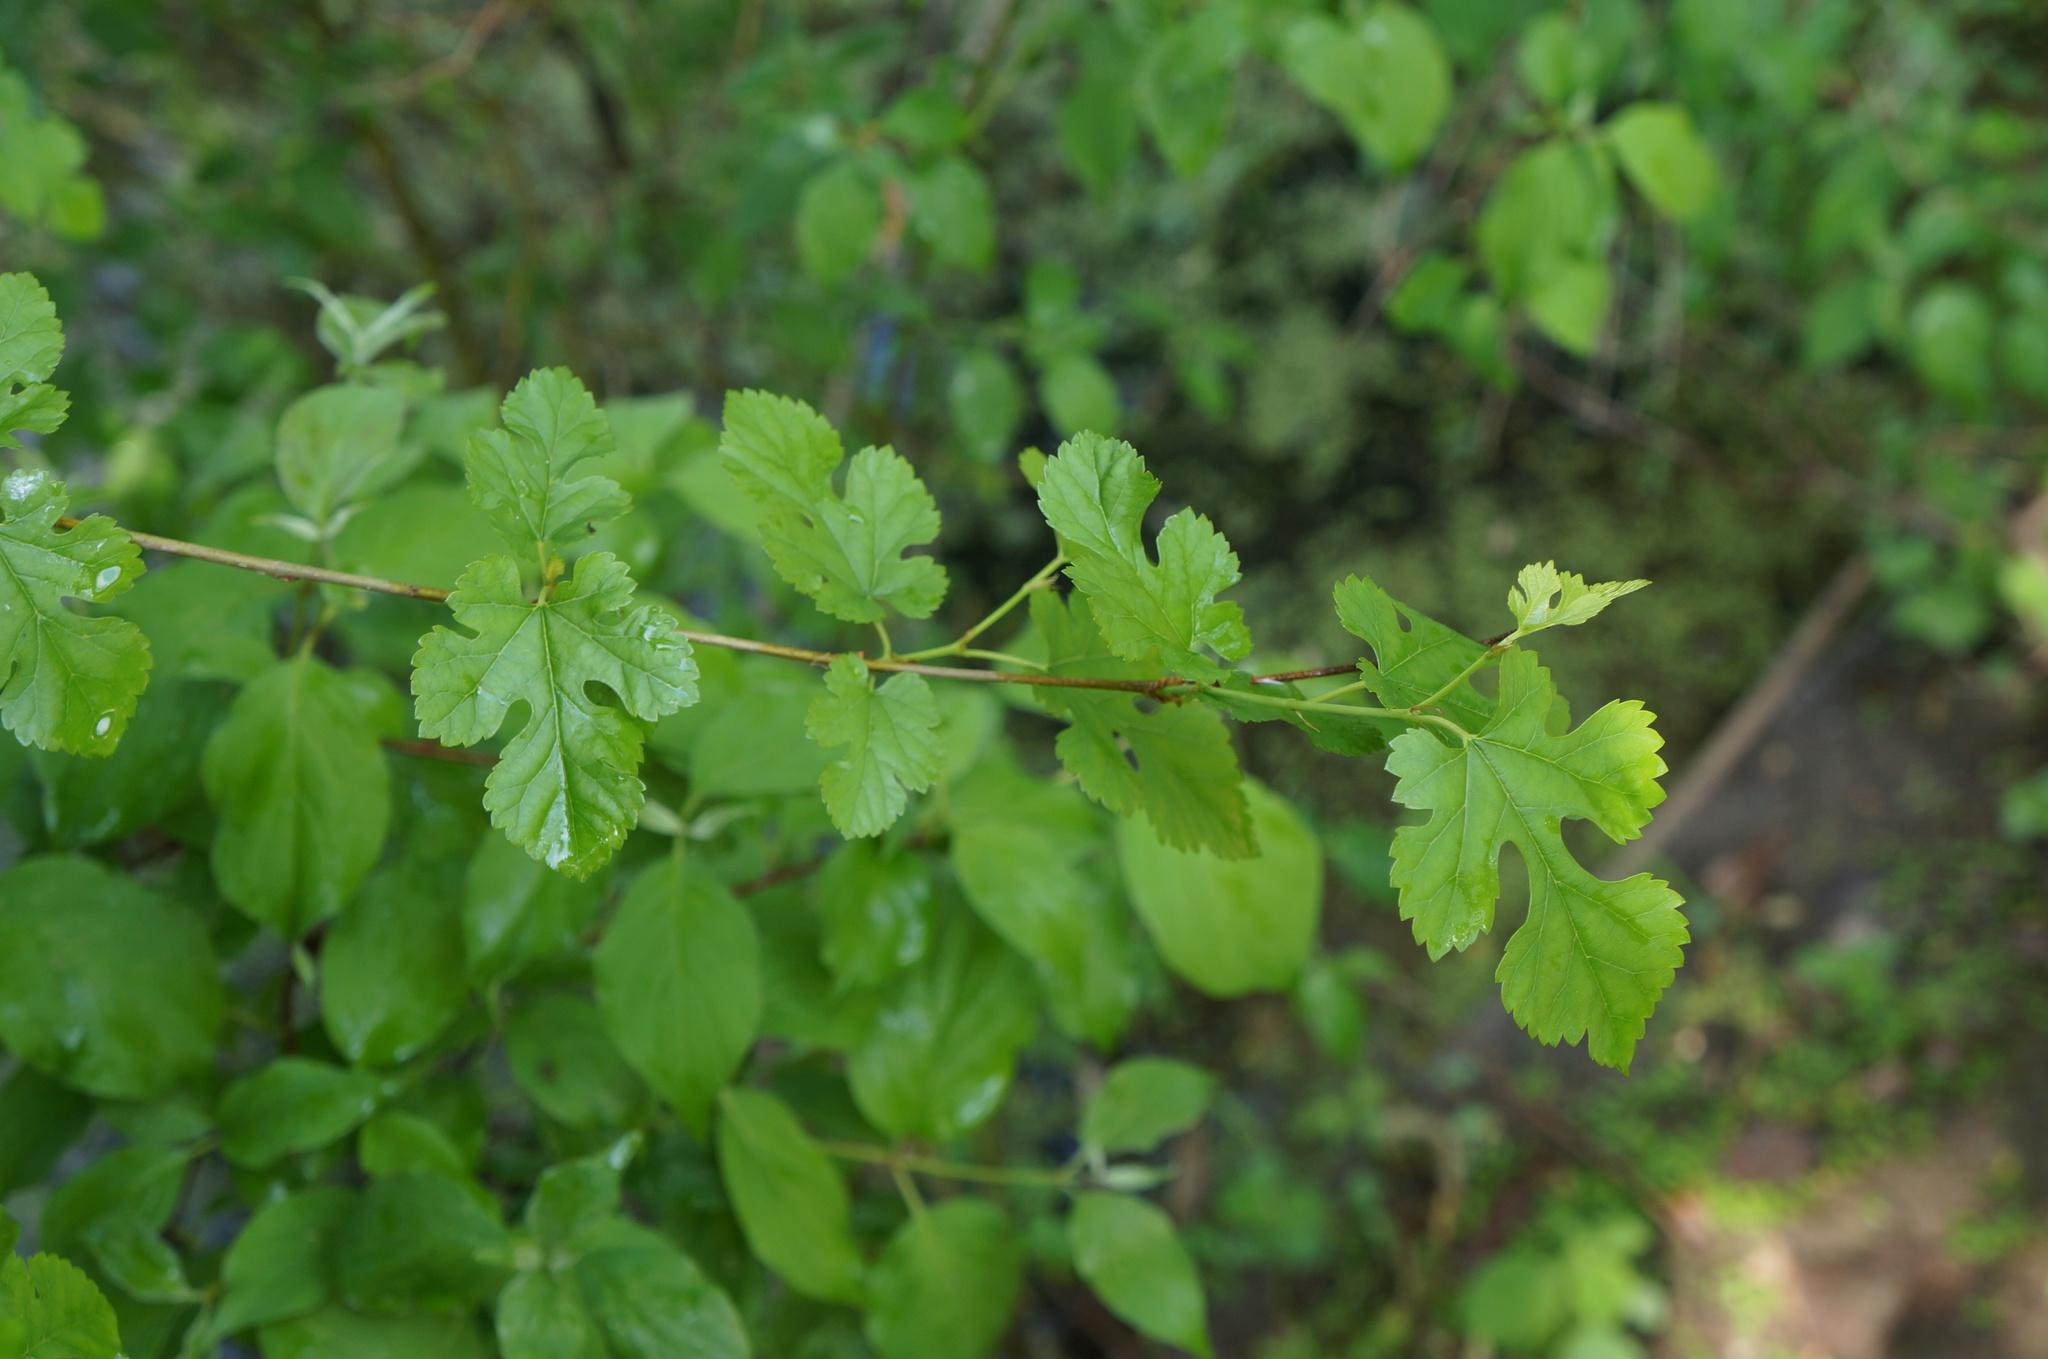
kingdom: Plantae
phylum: Tracheophyta
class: Magnoliopsida
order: Rosales
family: Moraceae
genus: Morus
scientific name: Morus alba
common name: White mulberry
